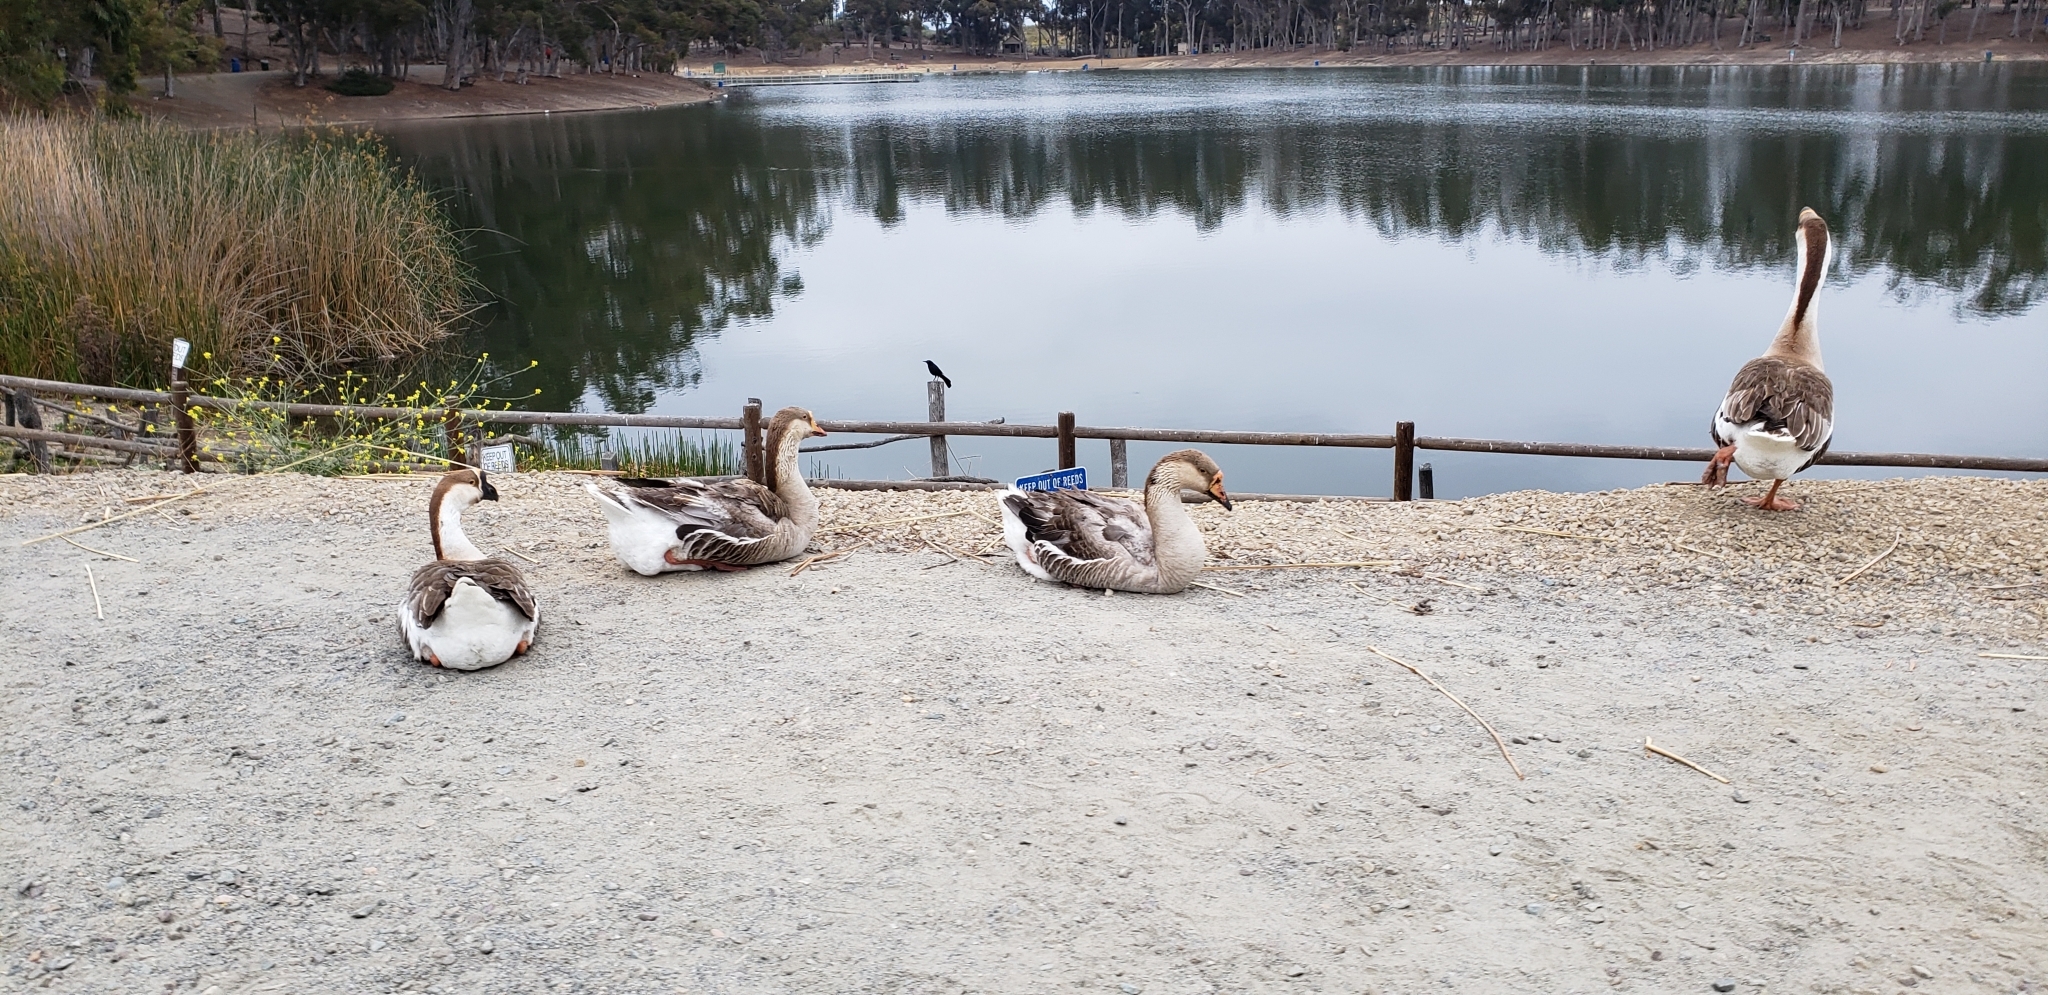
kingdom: Animalia
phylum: Chordata
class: Aves
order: Anseriformes
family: Anatidae
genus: Anser
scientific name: Anser cygnoides
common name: Swan goose
